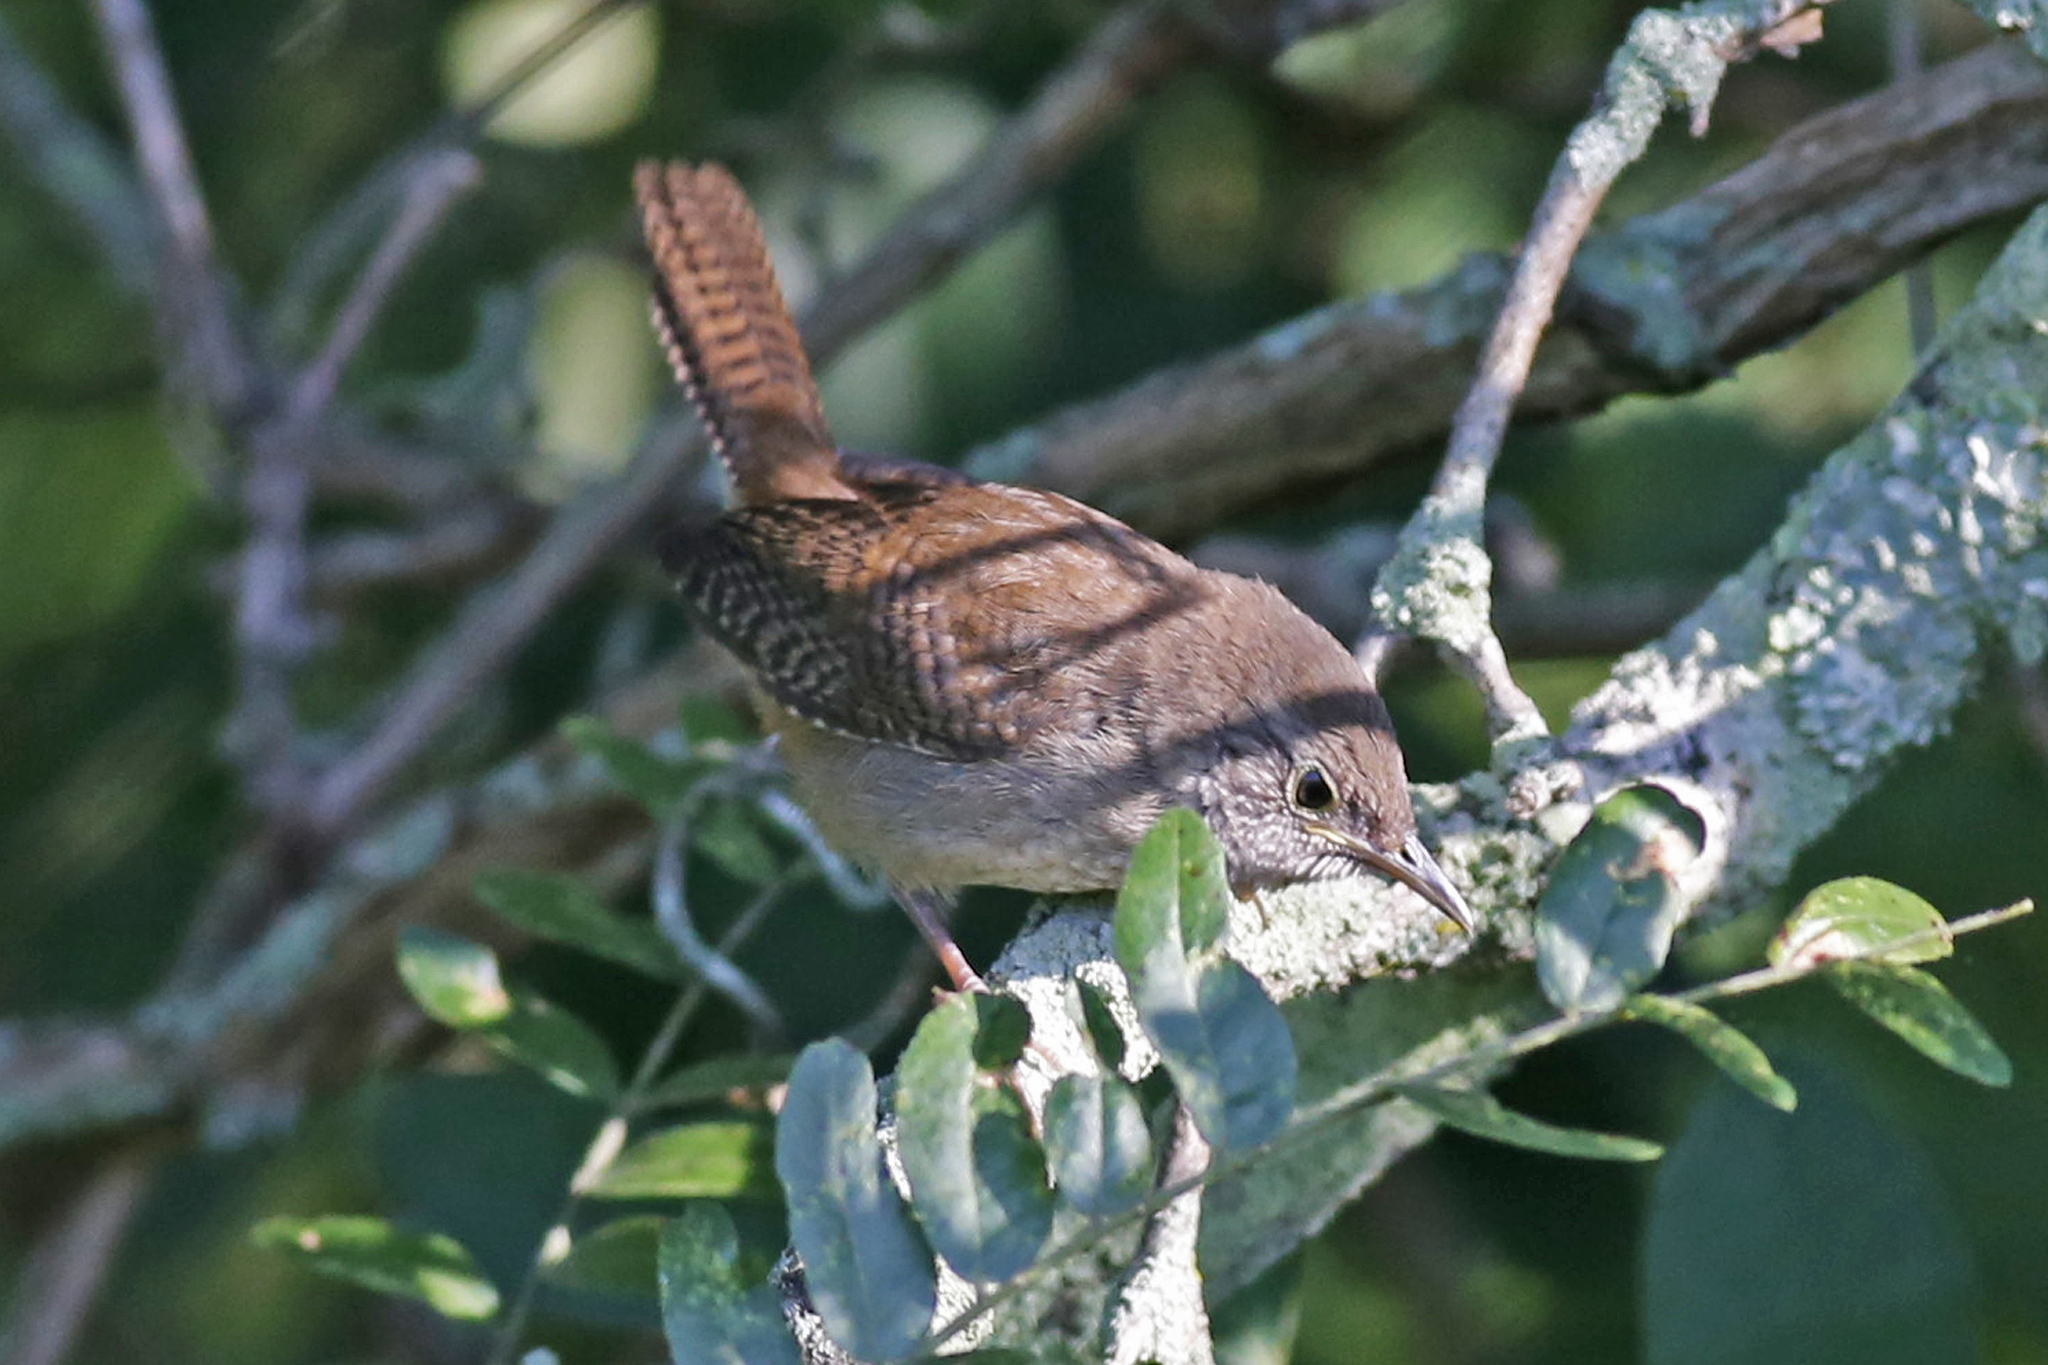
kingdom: Animalia
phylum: Chordata
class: Aves
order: Passeriformes
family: Troglodytidae
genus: Troglodytes
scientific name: Troglodytes aedon
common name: House wren
